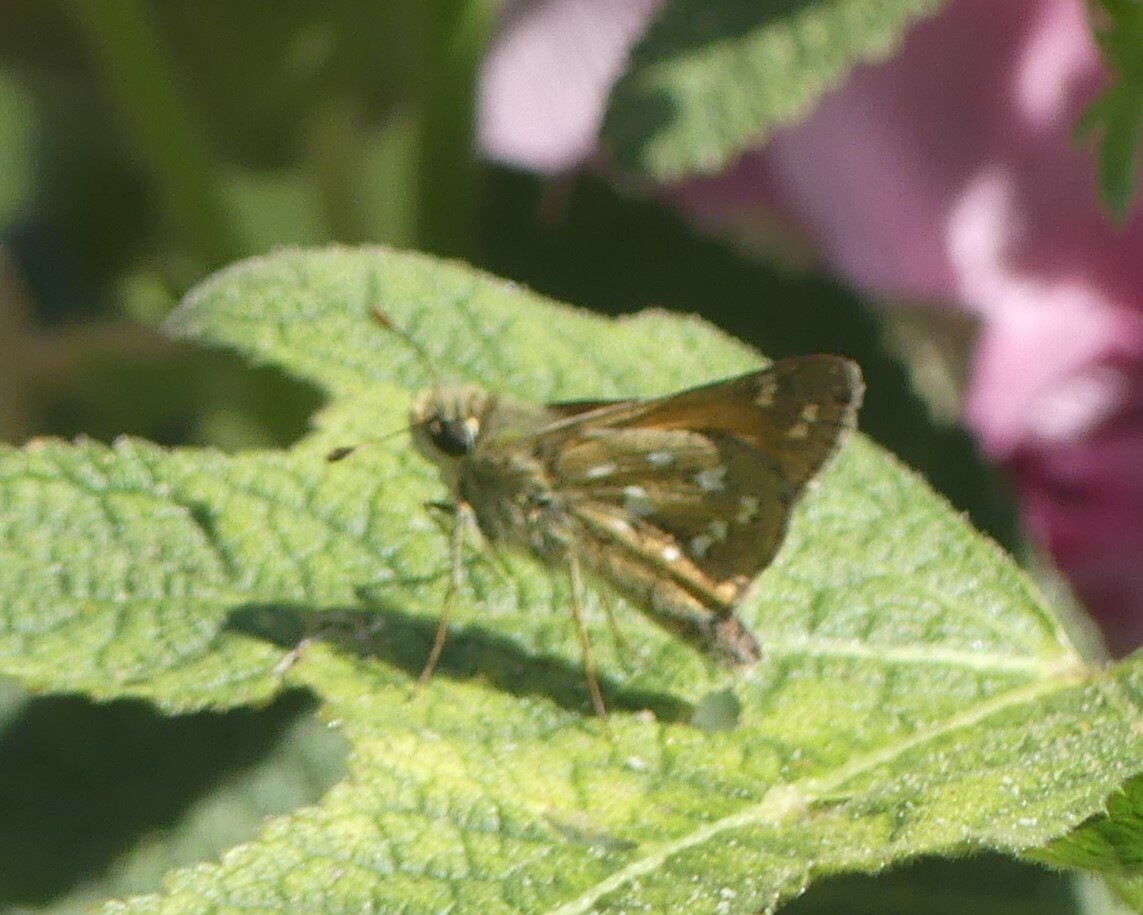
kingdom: Animalia
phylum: Arthropoda
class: Insecta
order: Lepidoptera
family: Hesperiidae
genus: Hesperia
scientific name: Hesperia comma
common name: Common branded skipper
